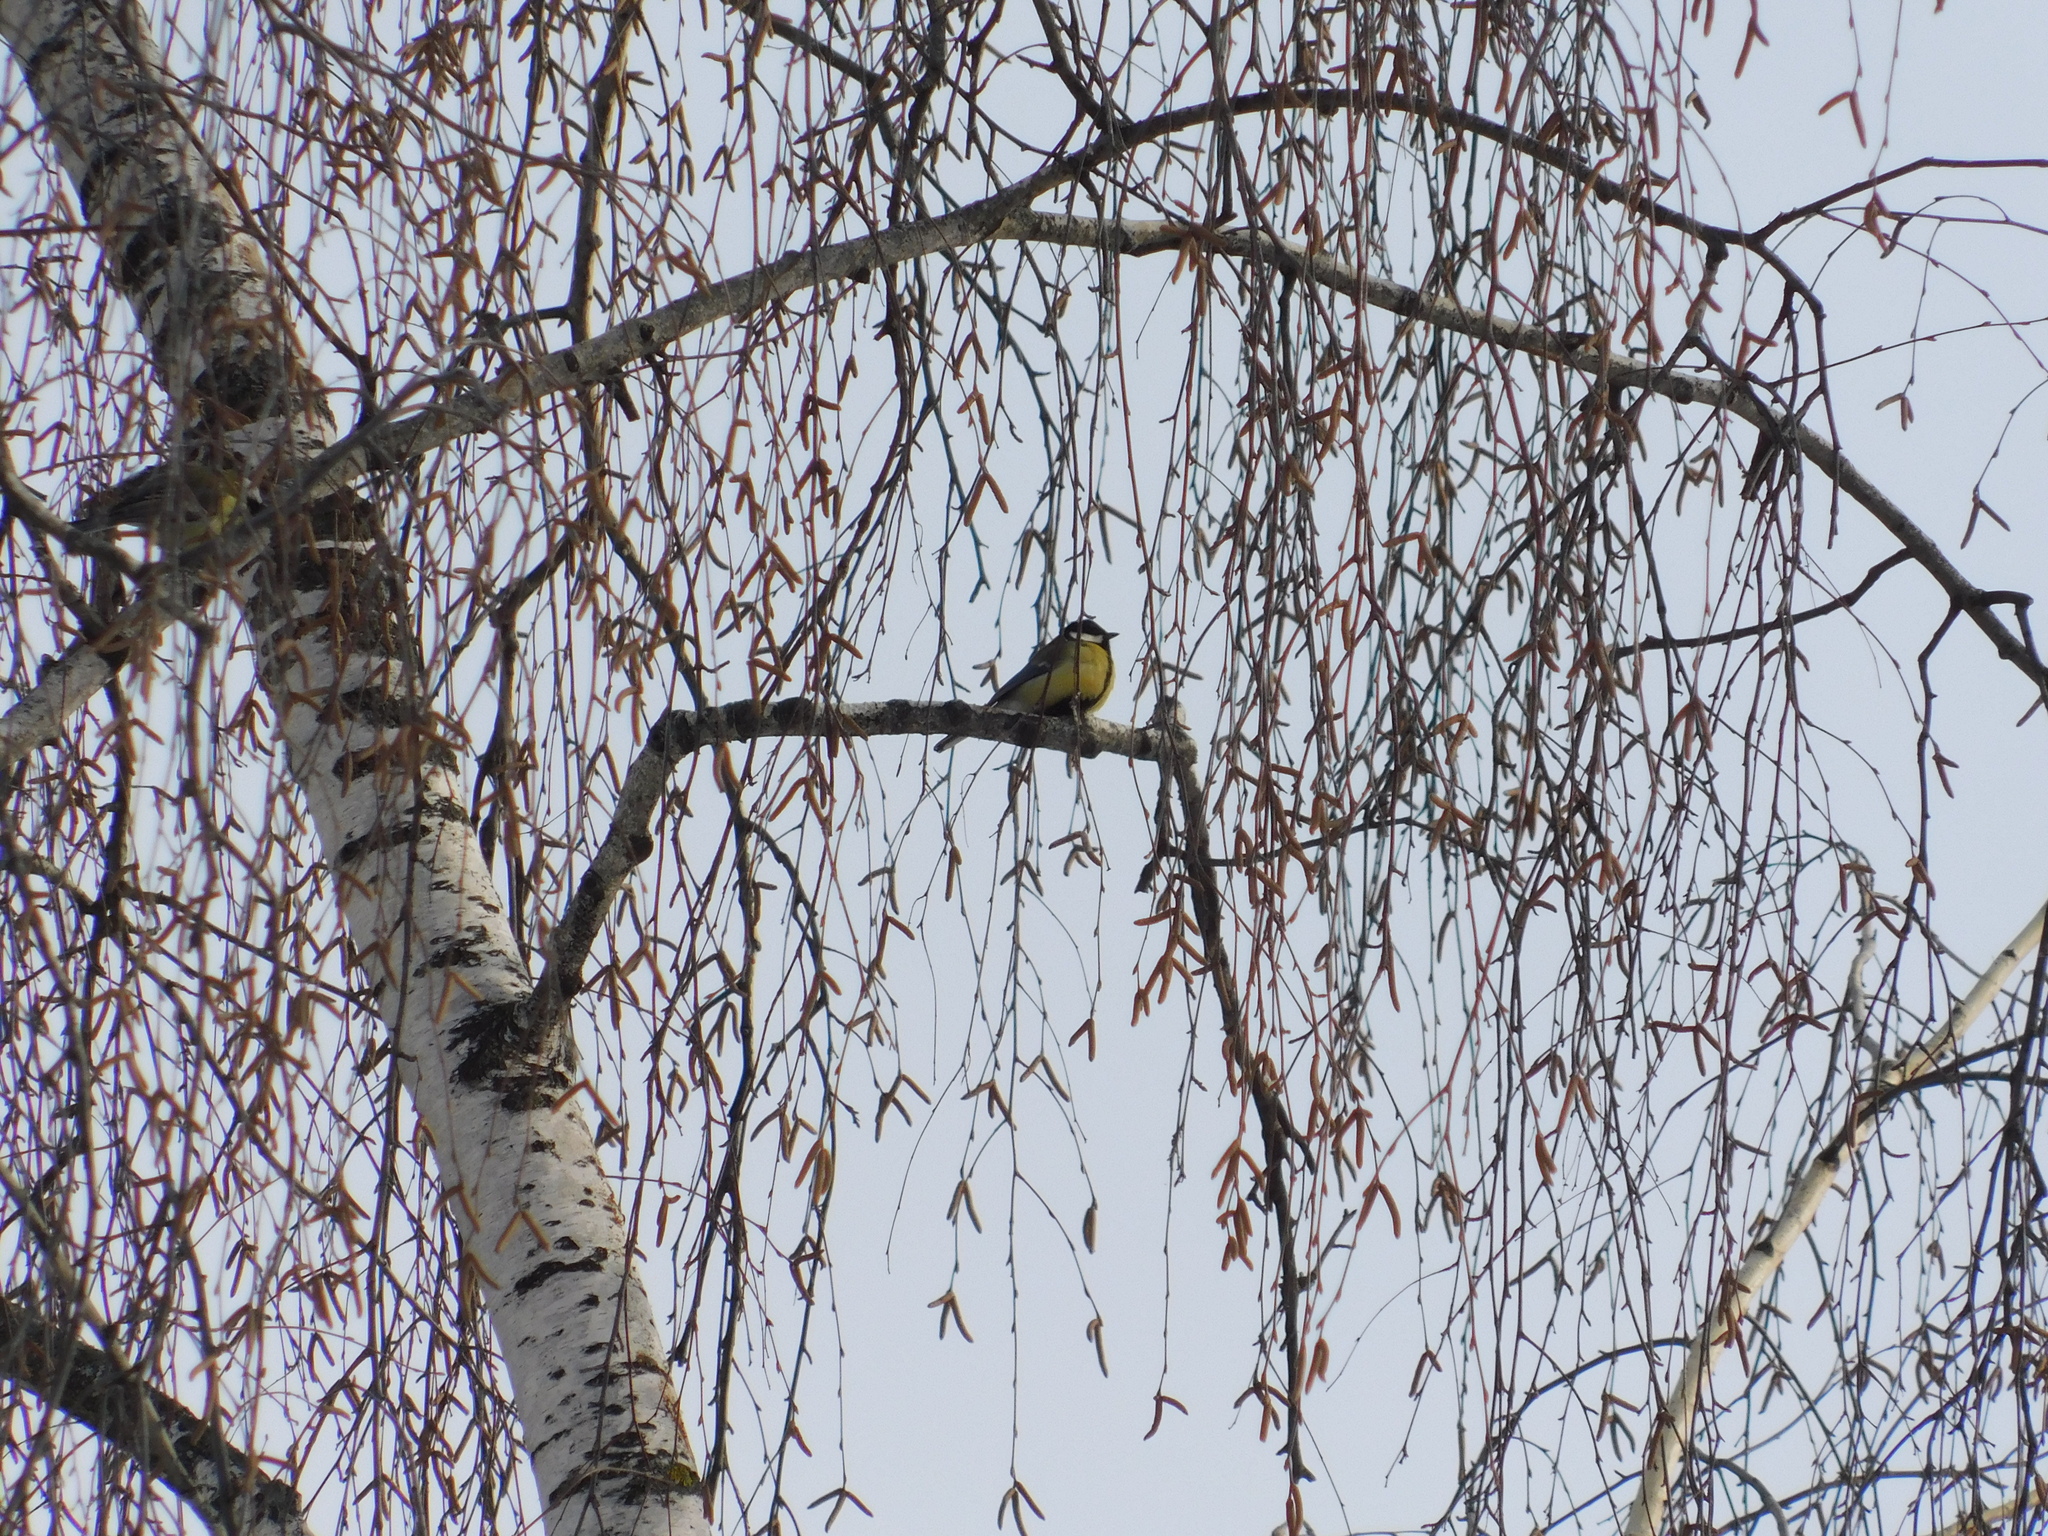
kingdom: Animalia
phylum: Chordata
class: Aves
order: Passeriformes
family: Paridae
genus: Parus
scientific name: Parus major
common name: Great tit
